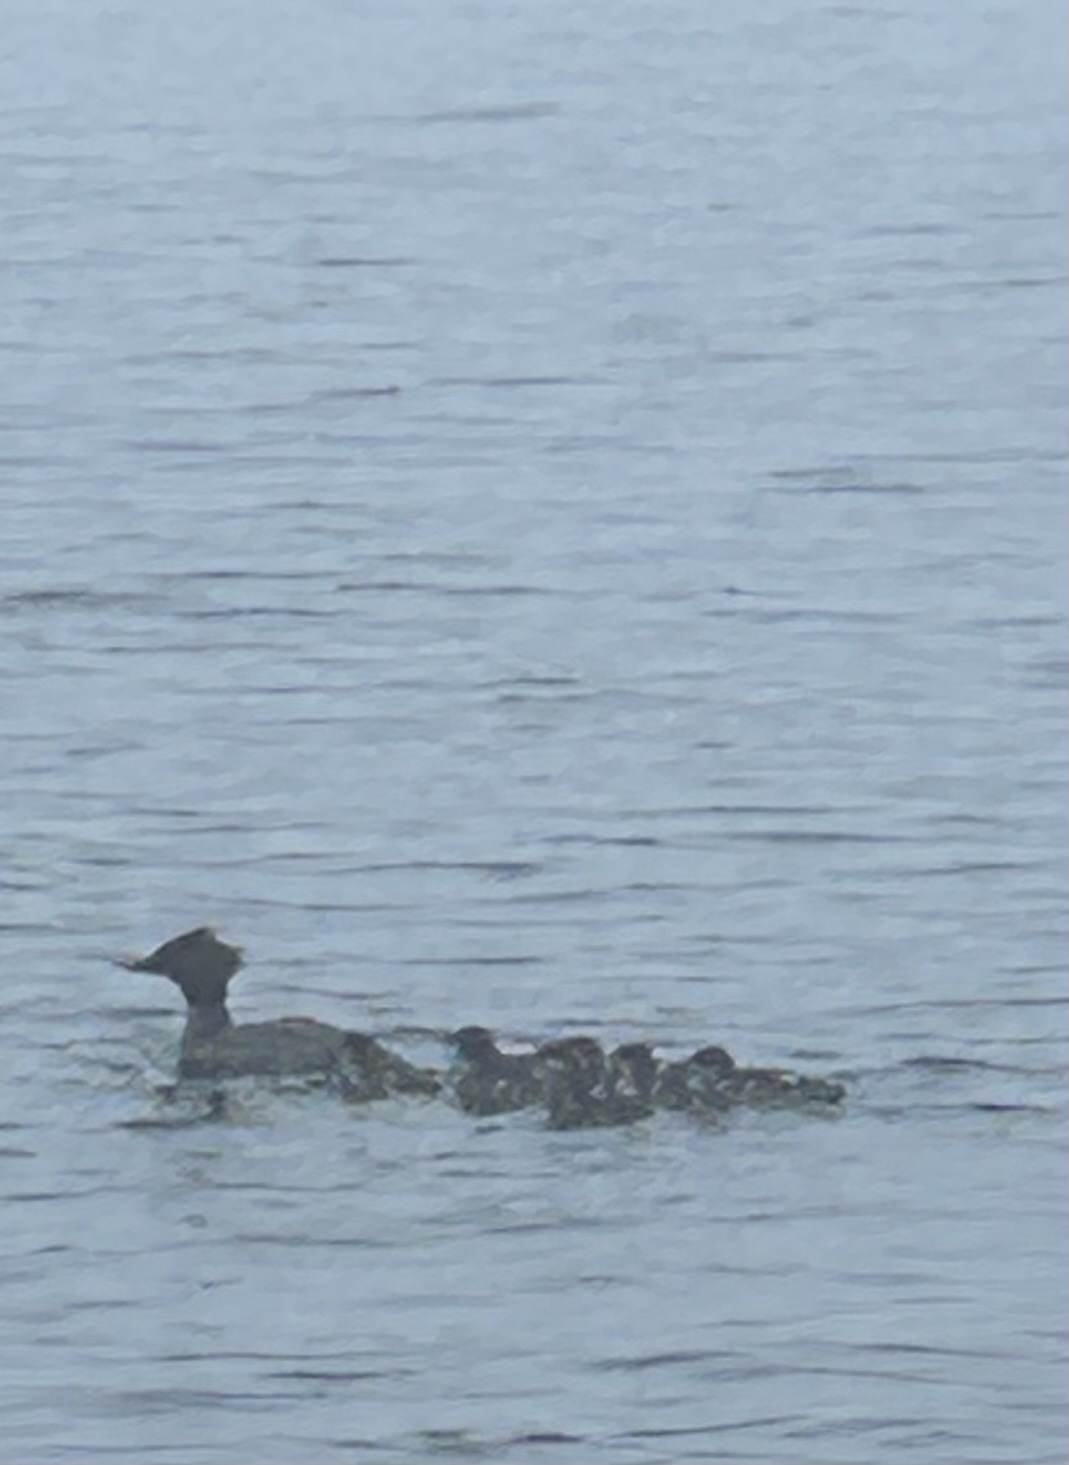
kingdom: Animalia
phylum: Chordata
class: Aves
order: Anseriformes
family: Anatidae
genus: Mergus
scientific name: Mergus merganser
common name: Common merganser
